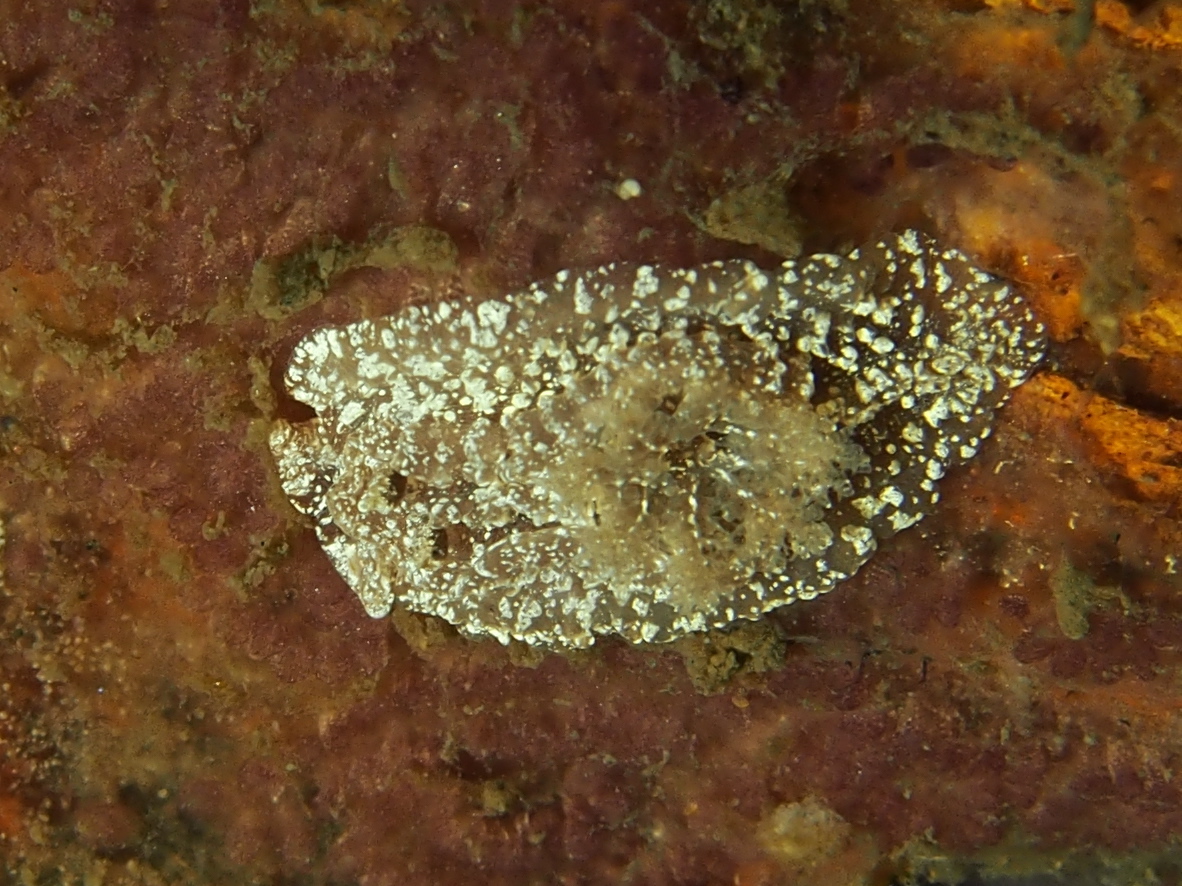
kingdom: Animalia
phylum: Mollusca
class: Gastropoda
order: Nudibranchia
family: Goniodorididae
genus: Pelagella
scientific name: Pelagella castanea
